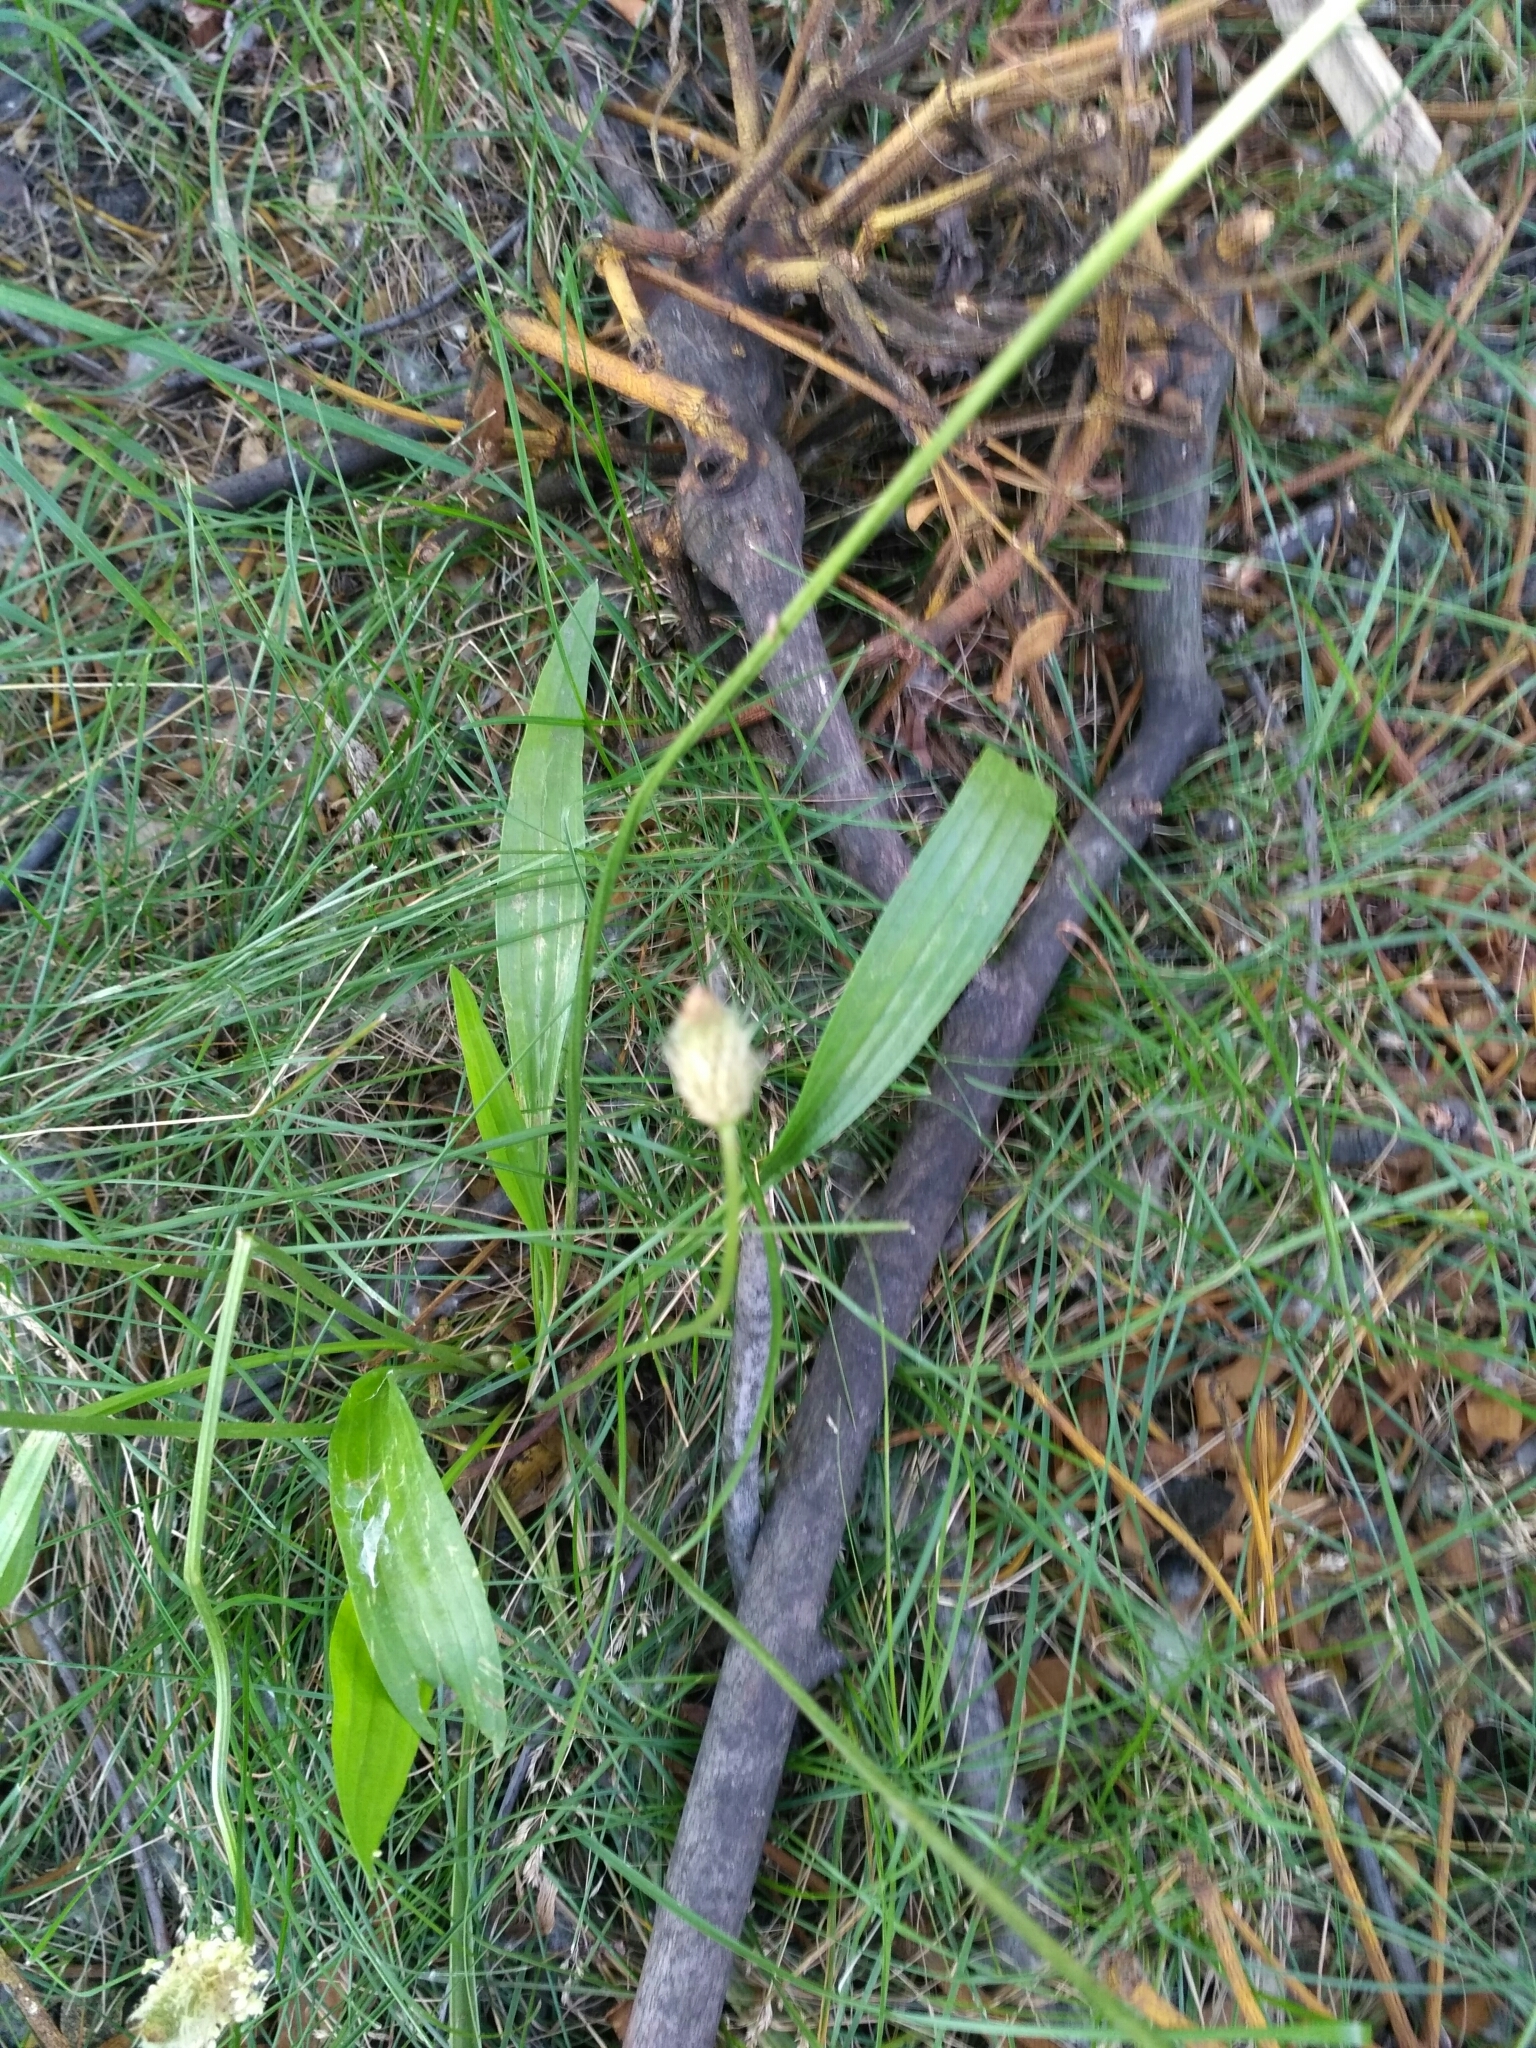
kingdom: Plantae
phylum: Tracheophyta
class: Magnoliopsida
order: Lamiales
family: Plantaginaceae
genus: Plantago
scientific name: Plantago lanceolata
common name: Ribwort plantain
